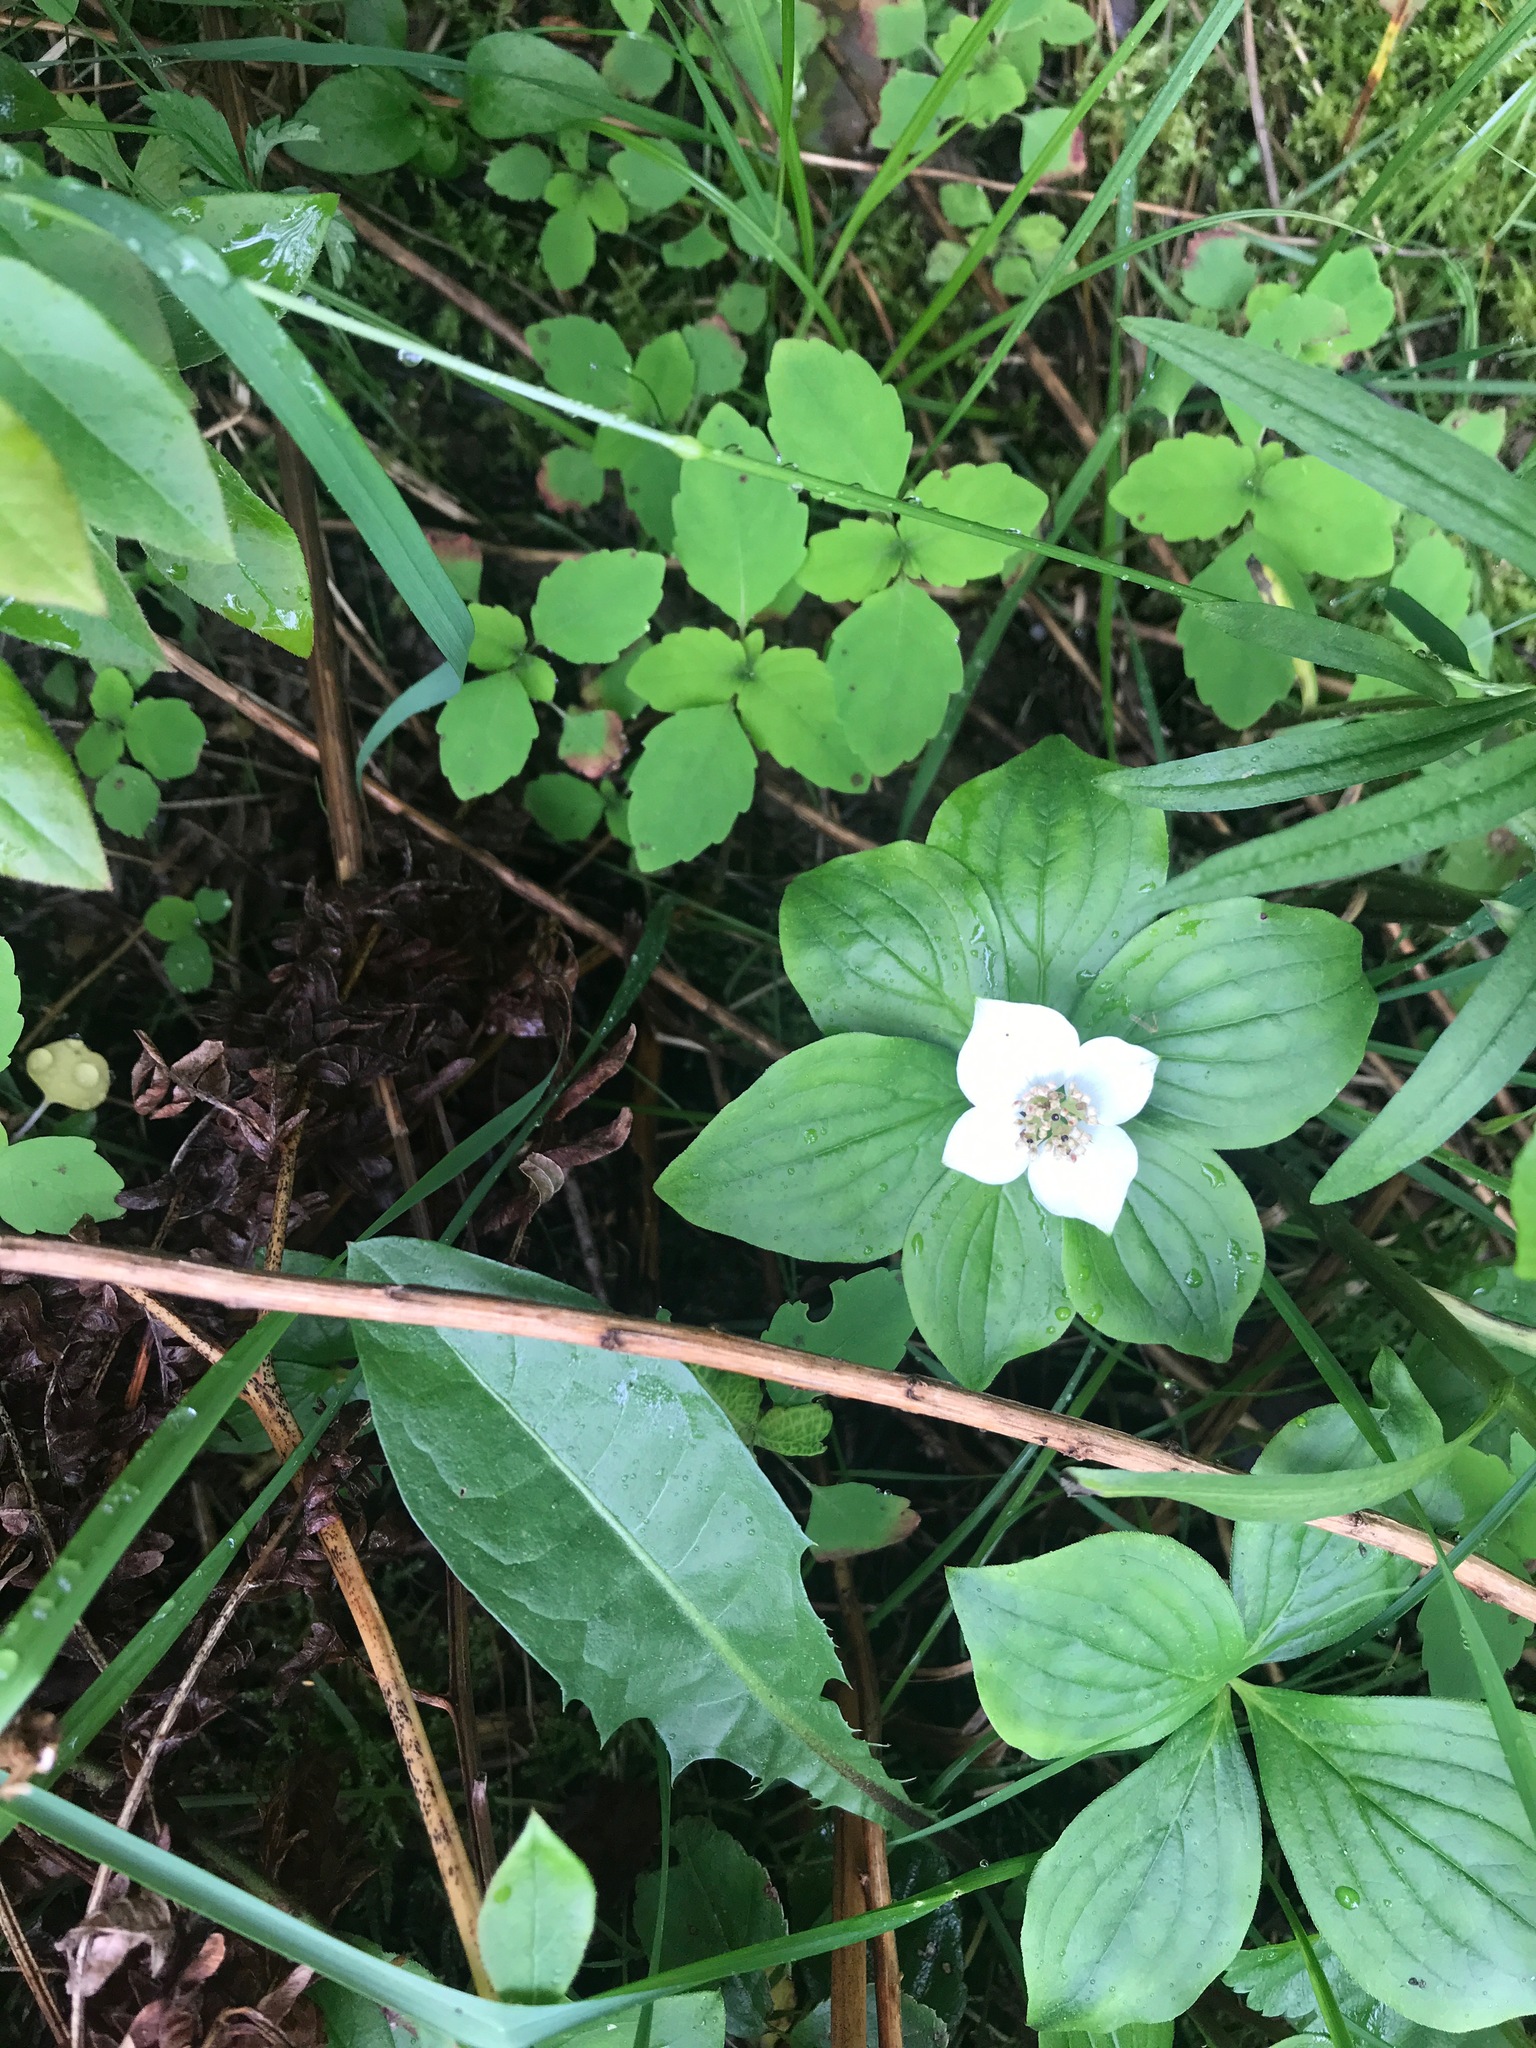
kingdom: Plantae
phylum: Tracheophyta
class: Magnoliopsida
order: Cornales
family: Cornaceae
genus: Cornus
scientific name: Cornus canadensis
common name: Creeping dogwood
